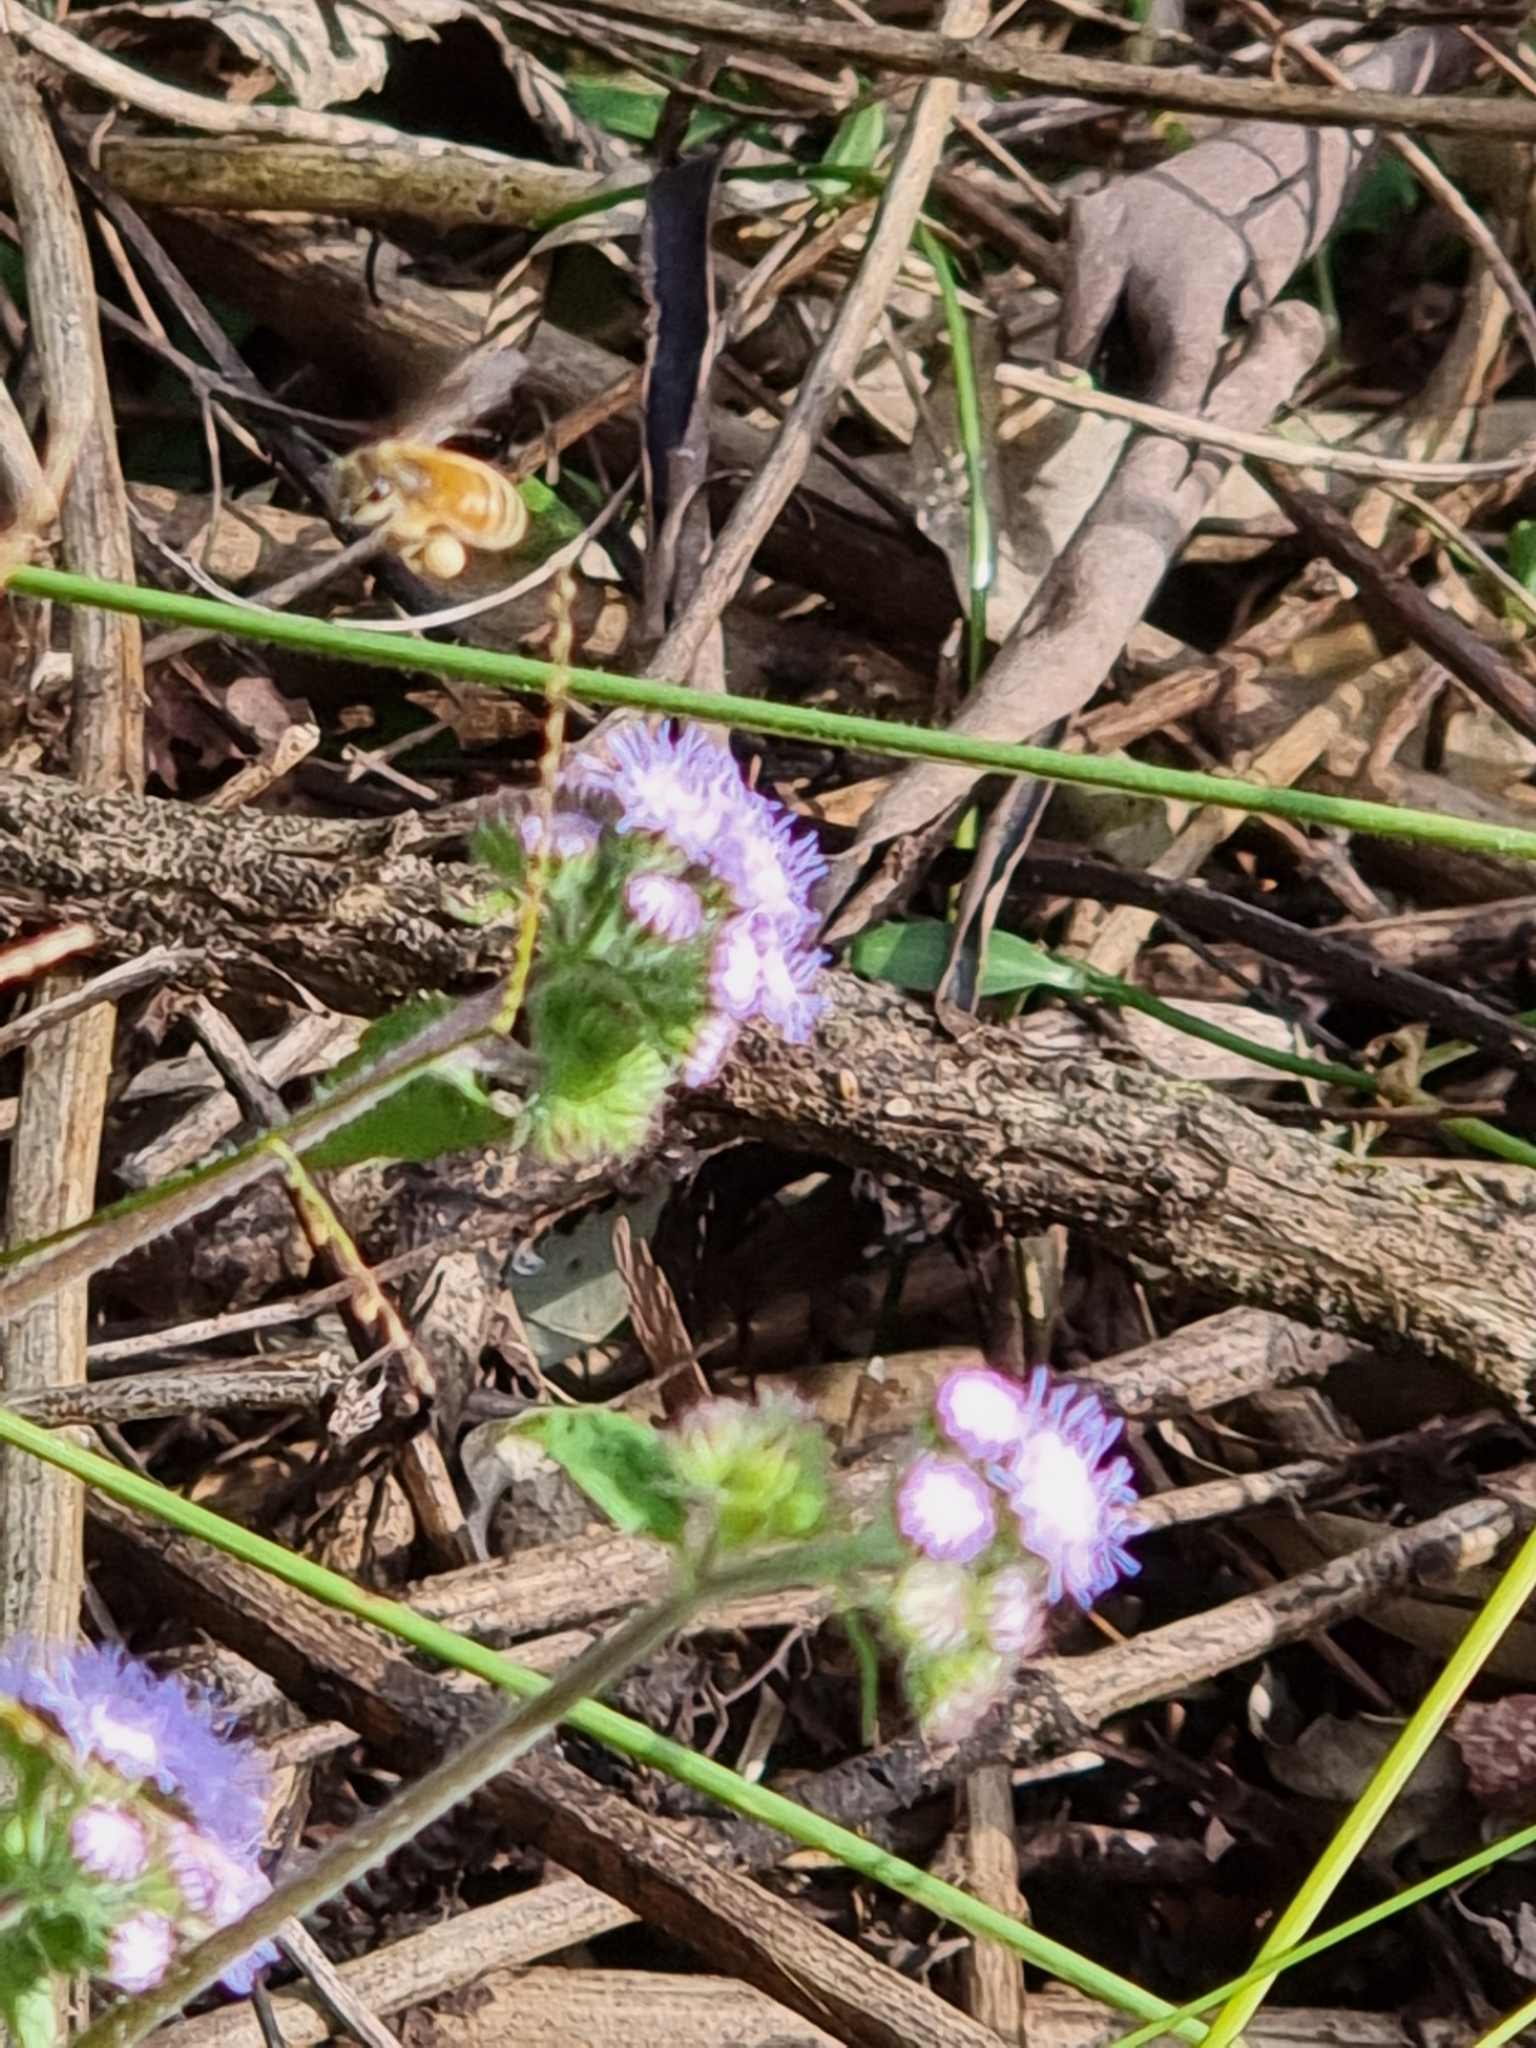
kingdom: Animalia
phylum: Arthropoda
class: Insecta
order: Hymenoptera
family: Apidae
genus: Apis
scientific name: Apis mellifera
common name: Honey bee
